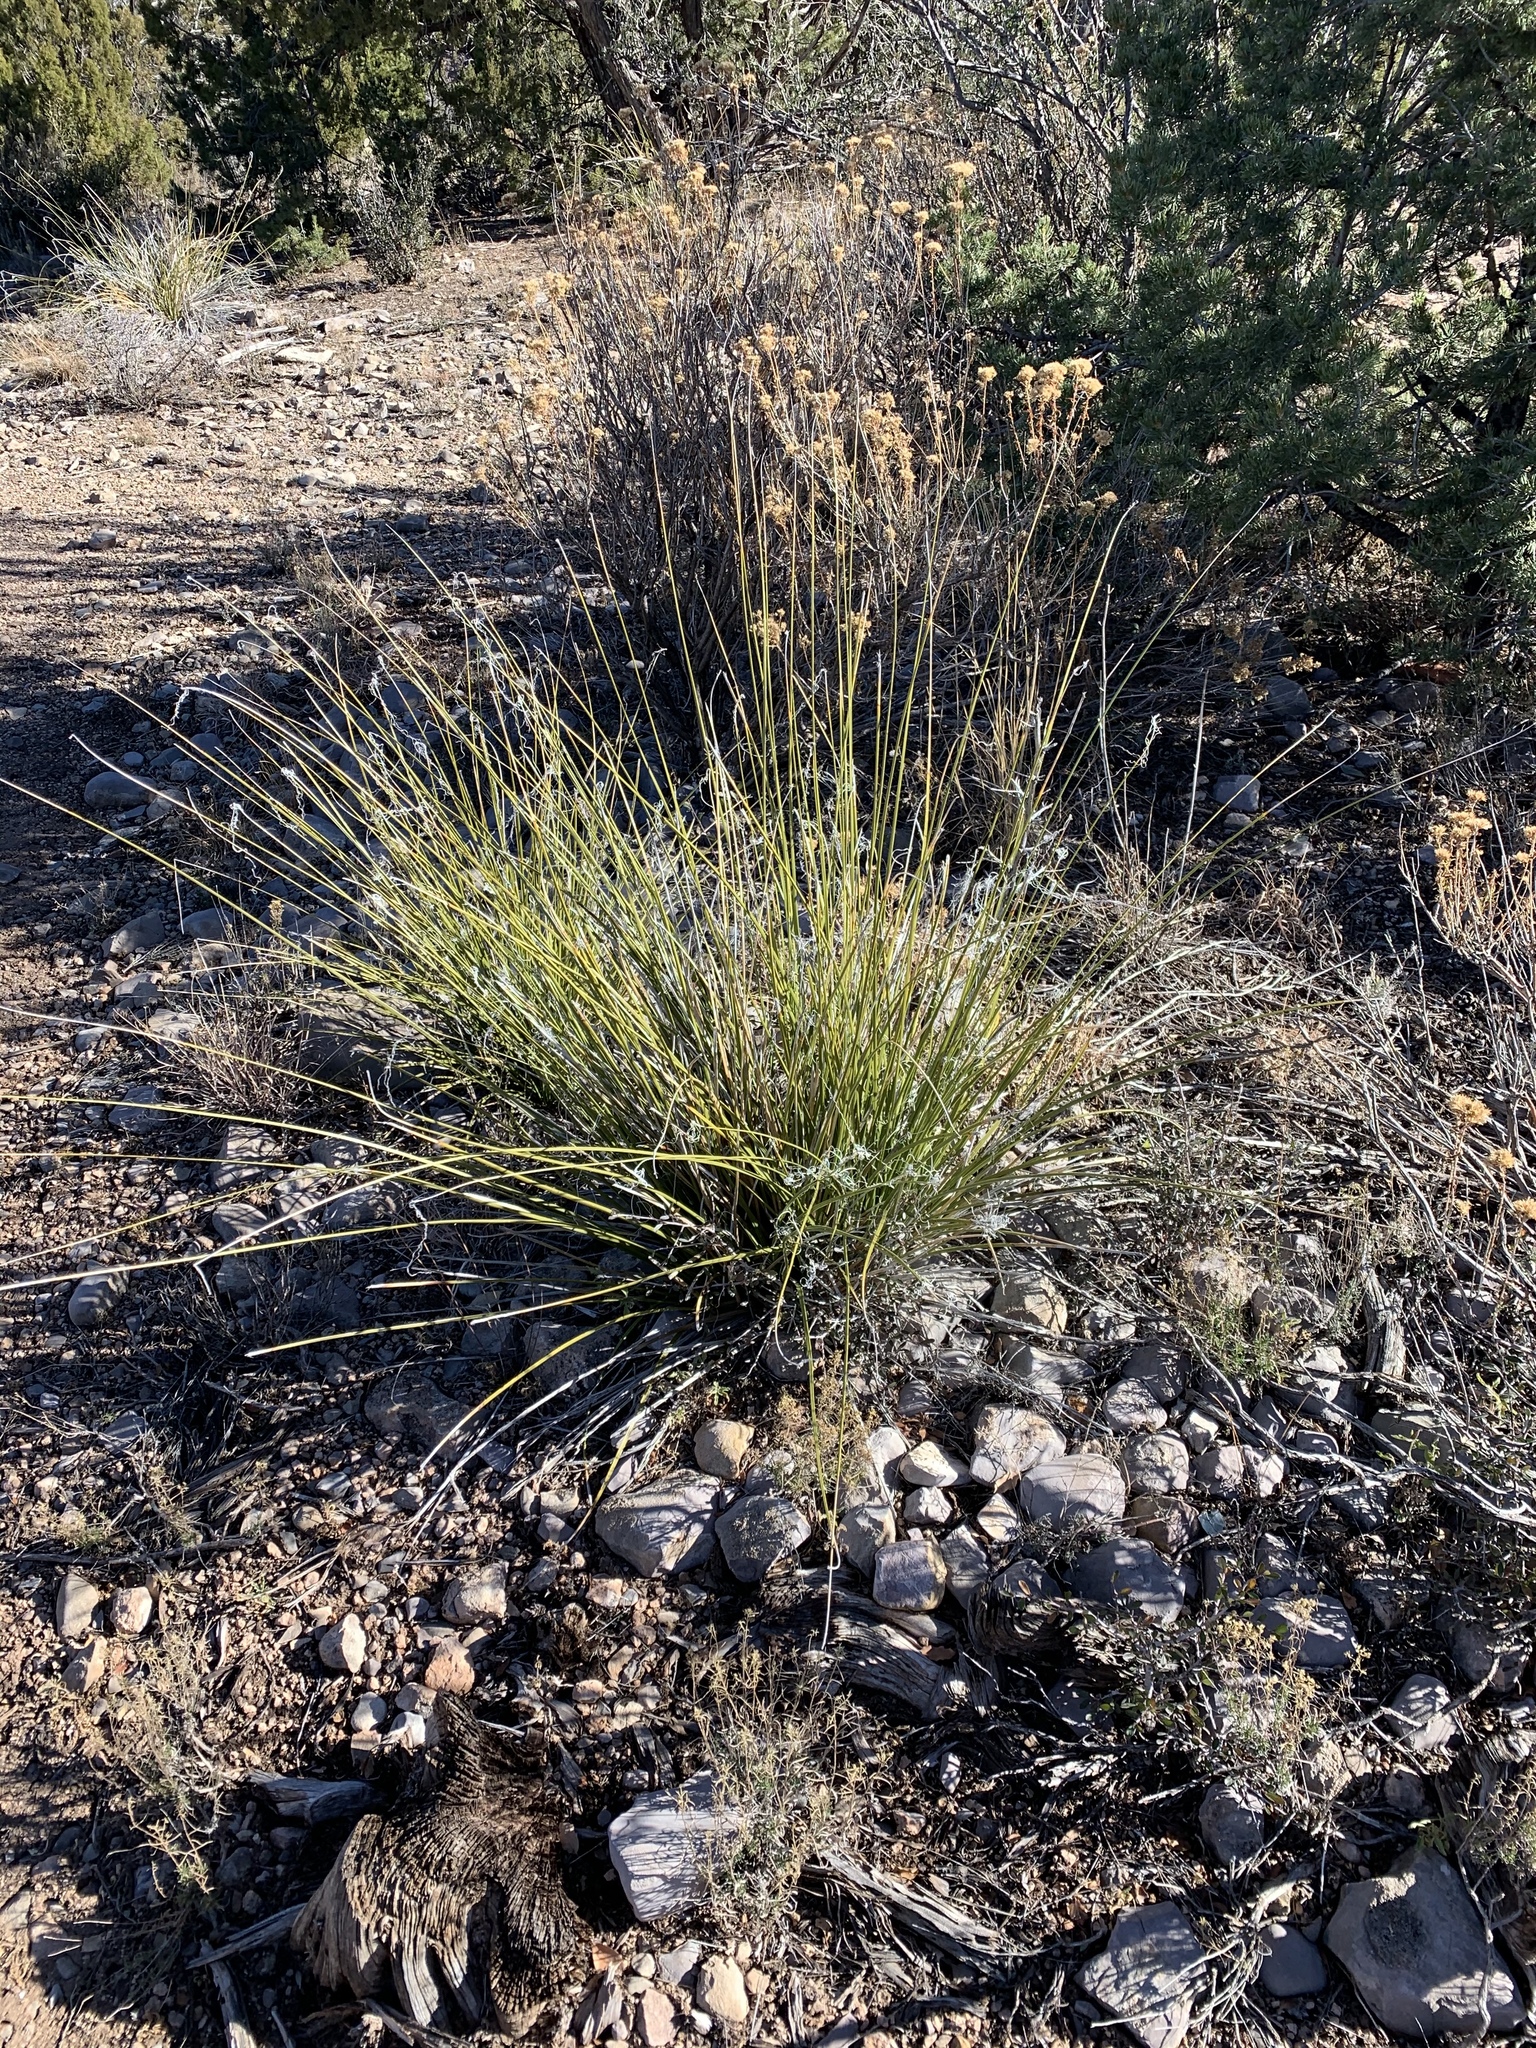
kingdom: Plantae
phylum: Tracheophyta
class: Liliopsida
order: Asparagales
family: Asparagaceae
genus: Nolina
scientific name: Nolina texana
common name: Texas sacahuiste
